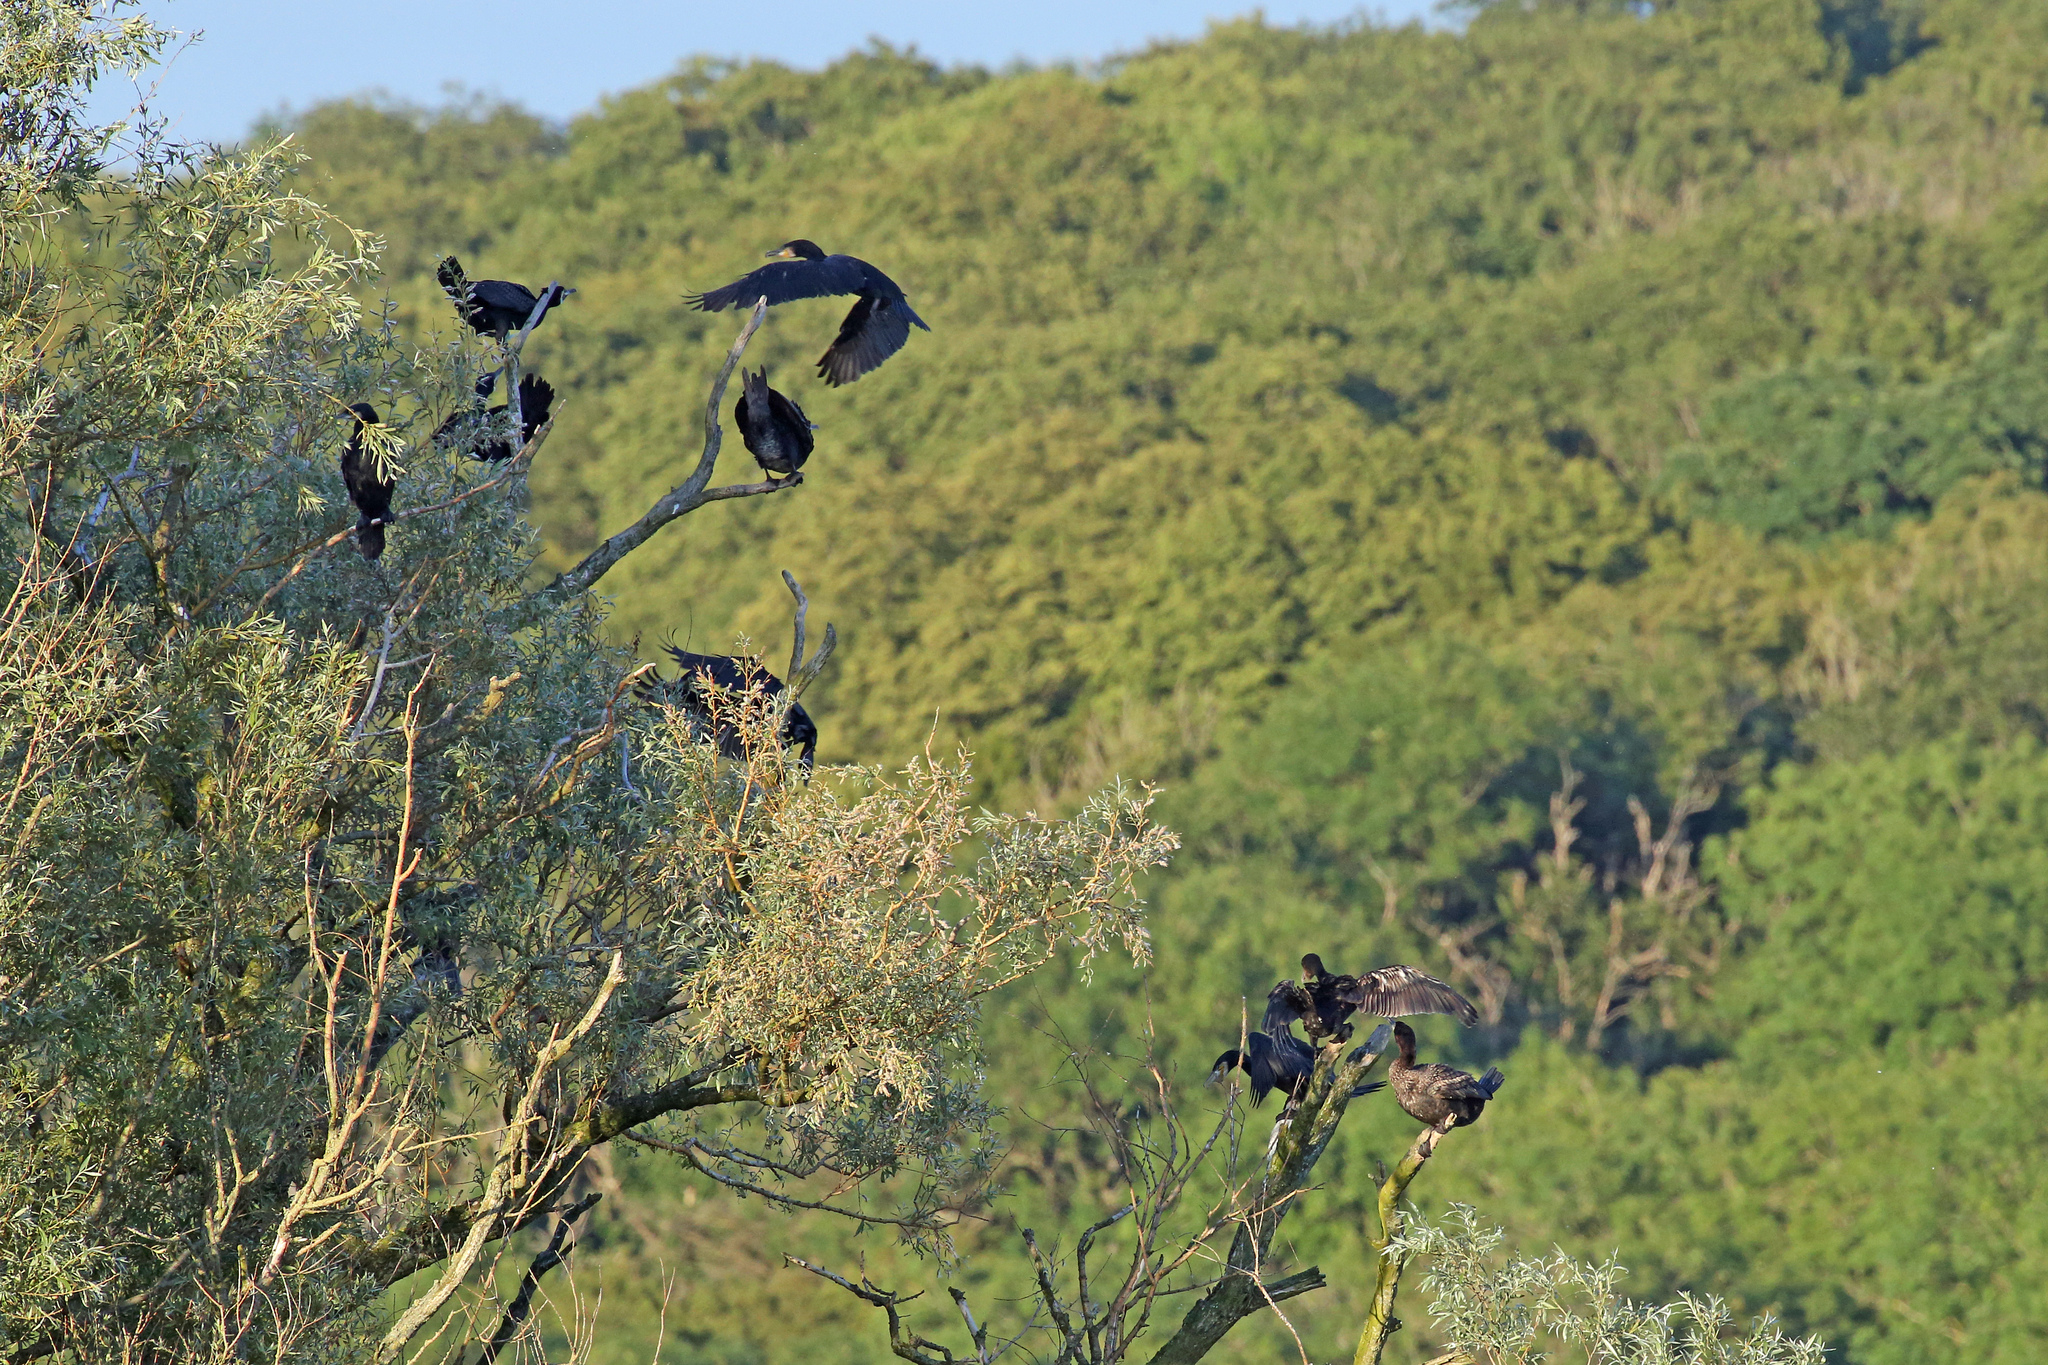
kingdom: Animalia
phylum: Chordata
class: Aves
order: Suliformes
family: Phalacrocoracidae
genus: Phalacrocorax
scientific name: Phalacrocorax carbo
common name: Great cormorant
